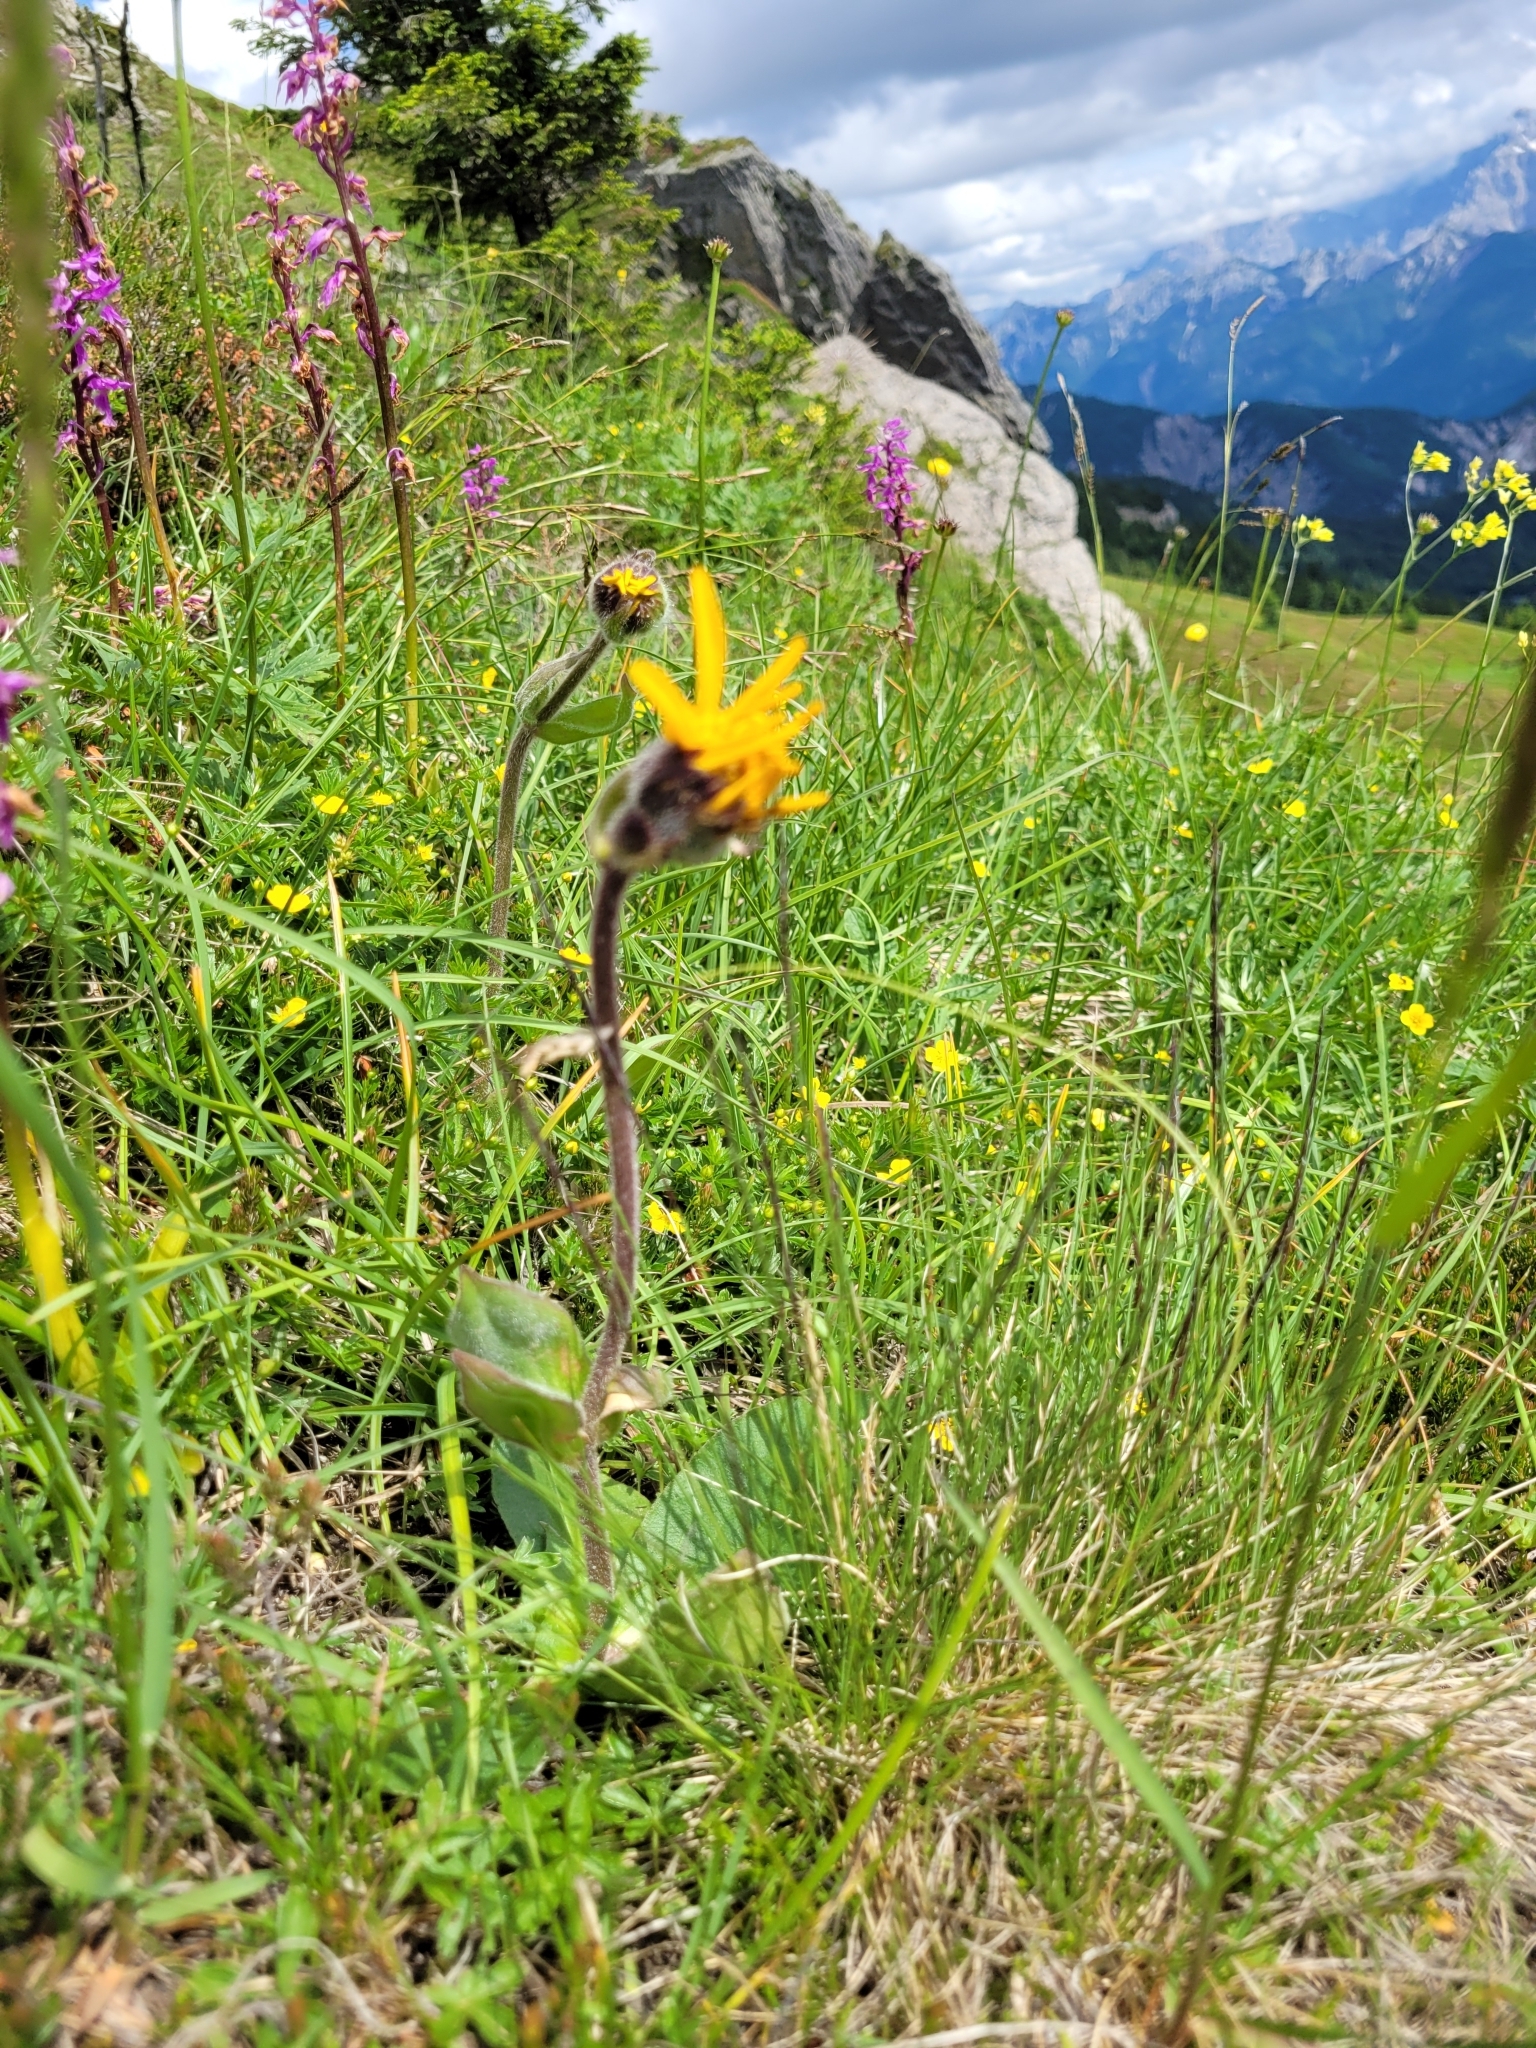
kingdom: Plantae
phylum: Tracheophyta
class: Magnoliopsida
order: Asterales
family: Asteraceae
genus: Arnica
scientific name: Arnica montana
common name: Leopard's bane
